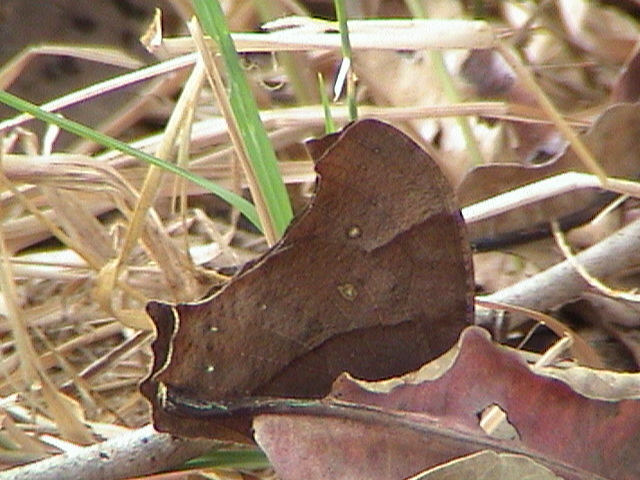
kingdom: Animalia
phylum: Arthropoda
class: Insecta
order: Lepidoptera
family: Nymphalidae
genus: Melanitis
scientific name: Melanitis leda
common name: Twilight brown
